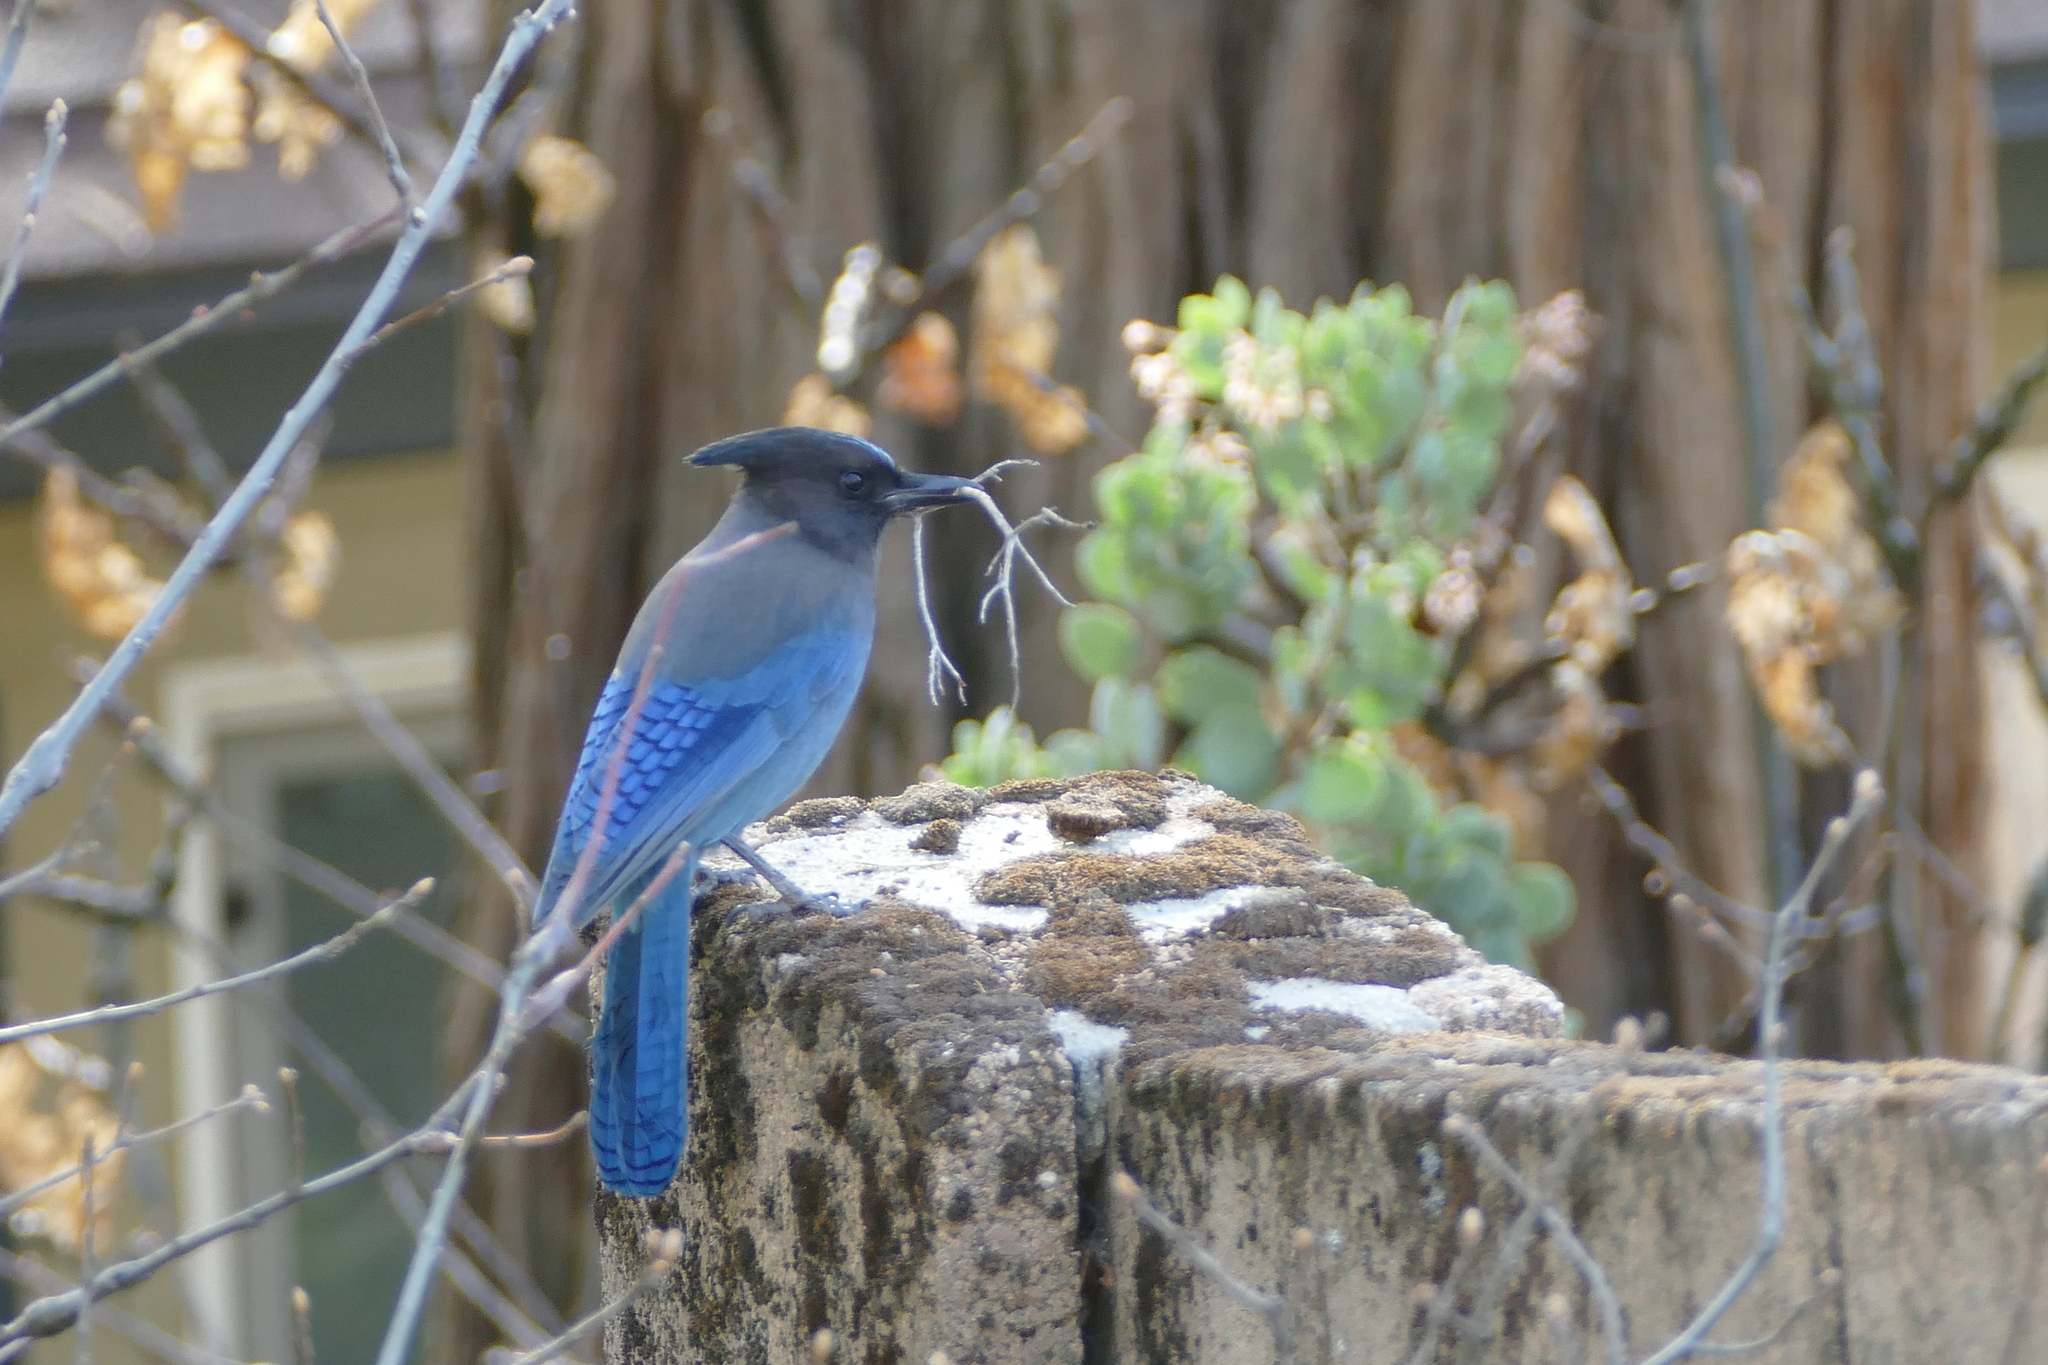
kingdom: Animalia
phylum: Chordata
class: Aves
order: Passeriformes
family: Corvidae
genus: Cyanocitta
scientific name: Cyanocitta stelleri
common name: Steller's jay
